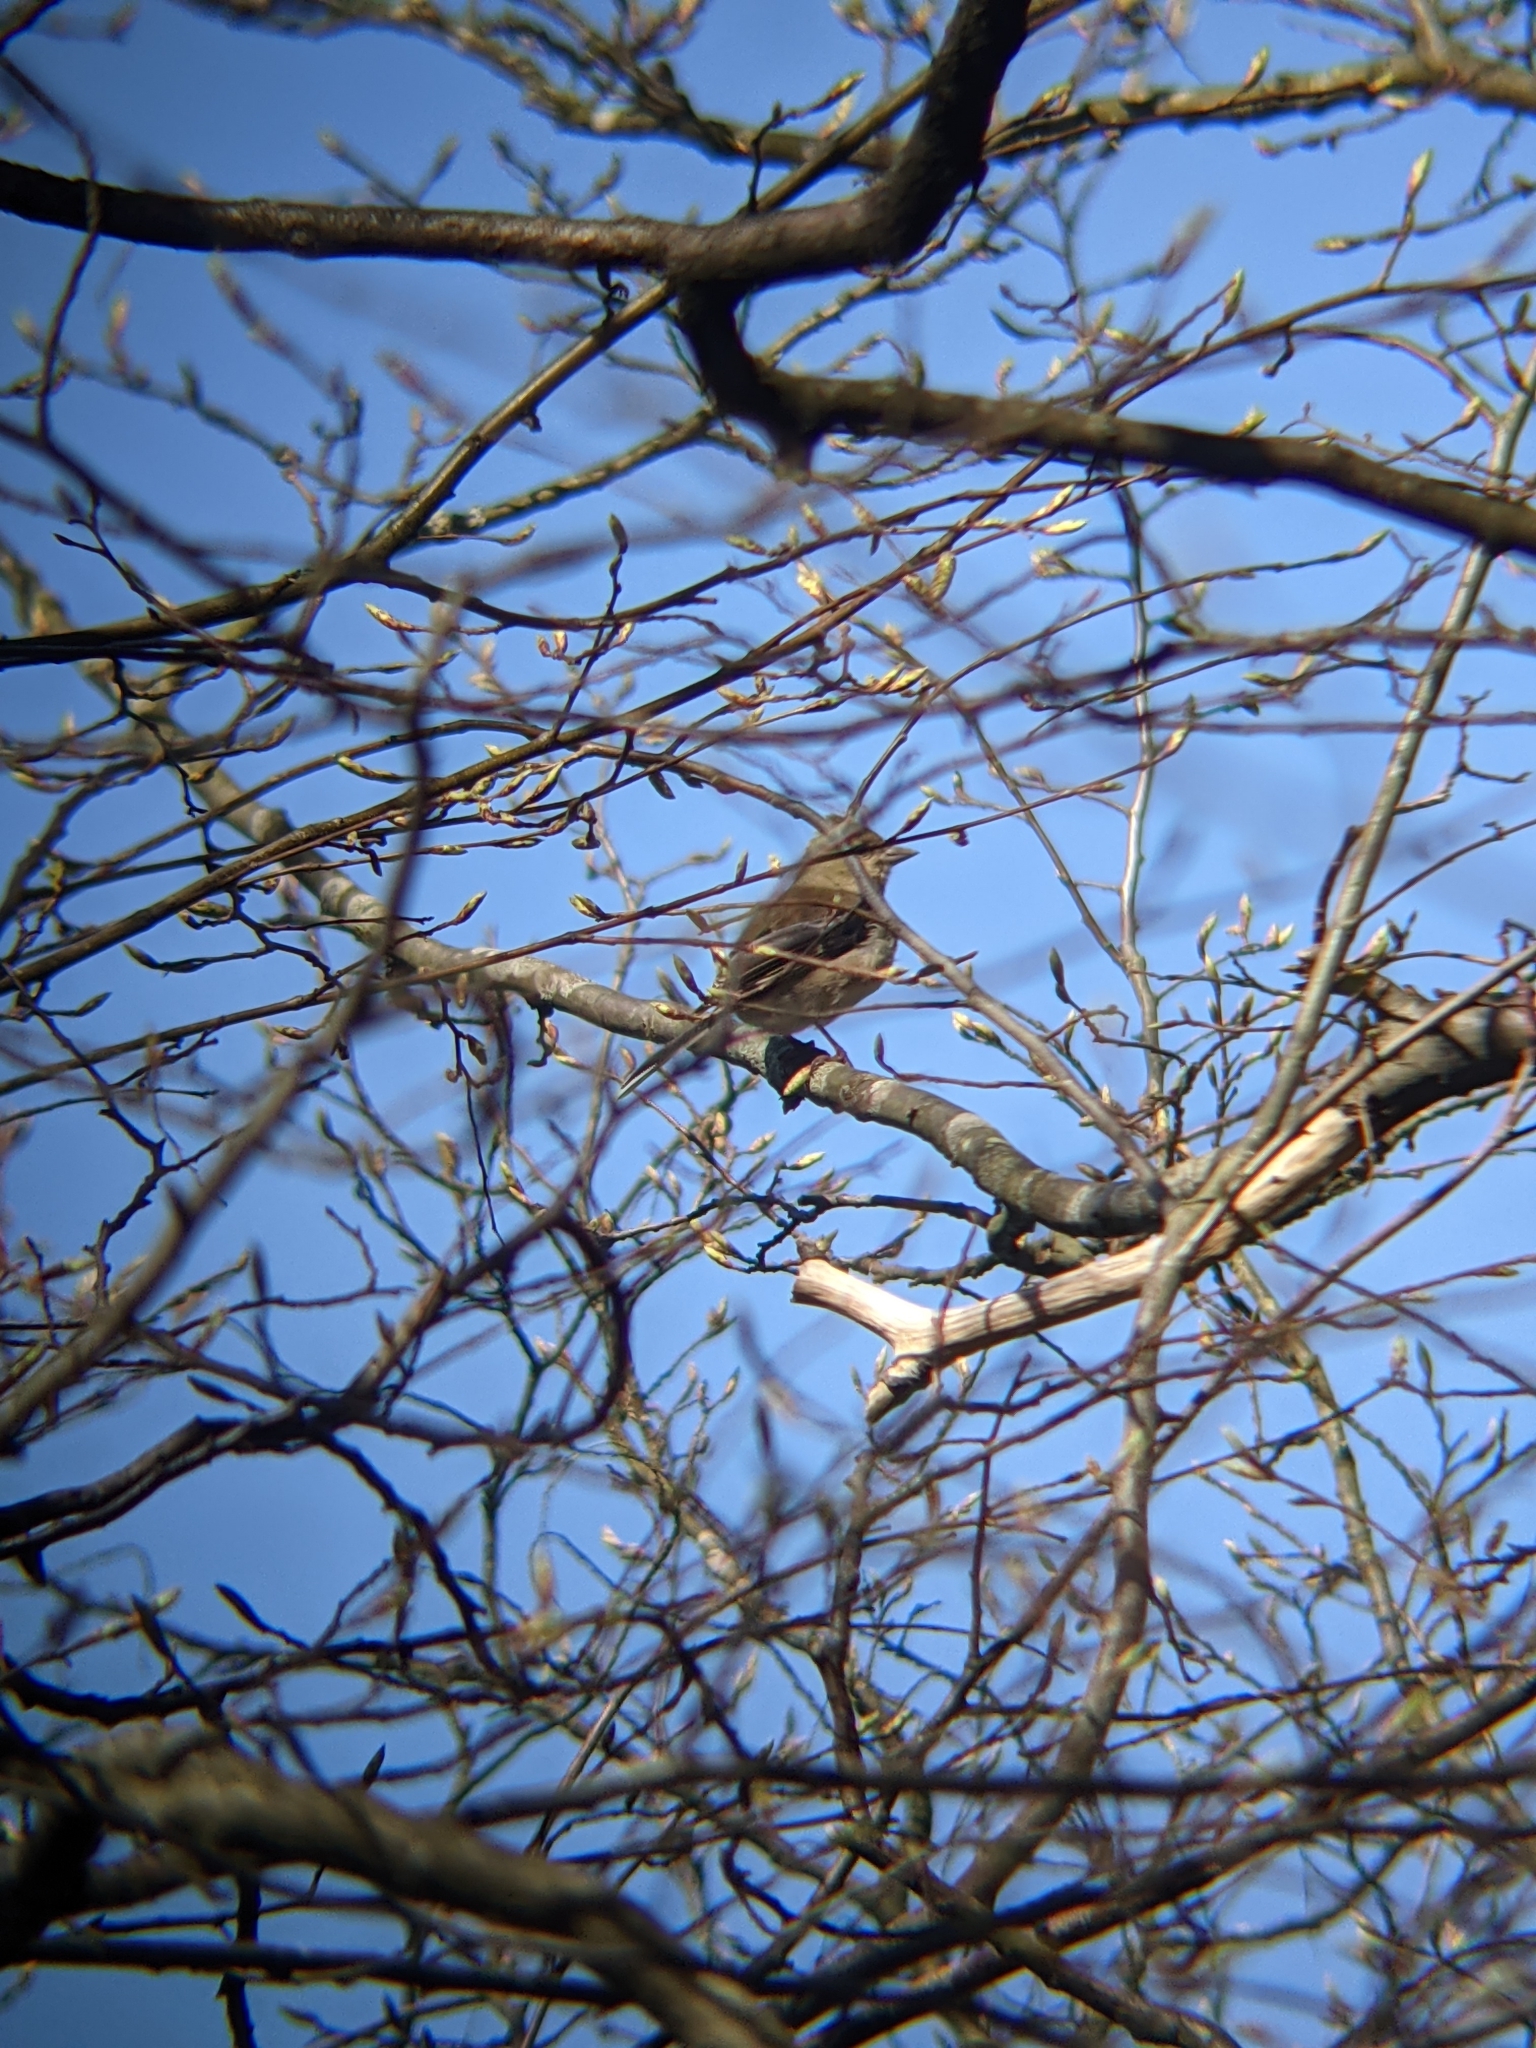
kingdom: Animalia
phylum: Chordata
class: Aves
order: Passeriformes
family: Fringillidae
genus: Fringilla
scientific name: Fringilla coelebs
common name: Common chaffinch
